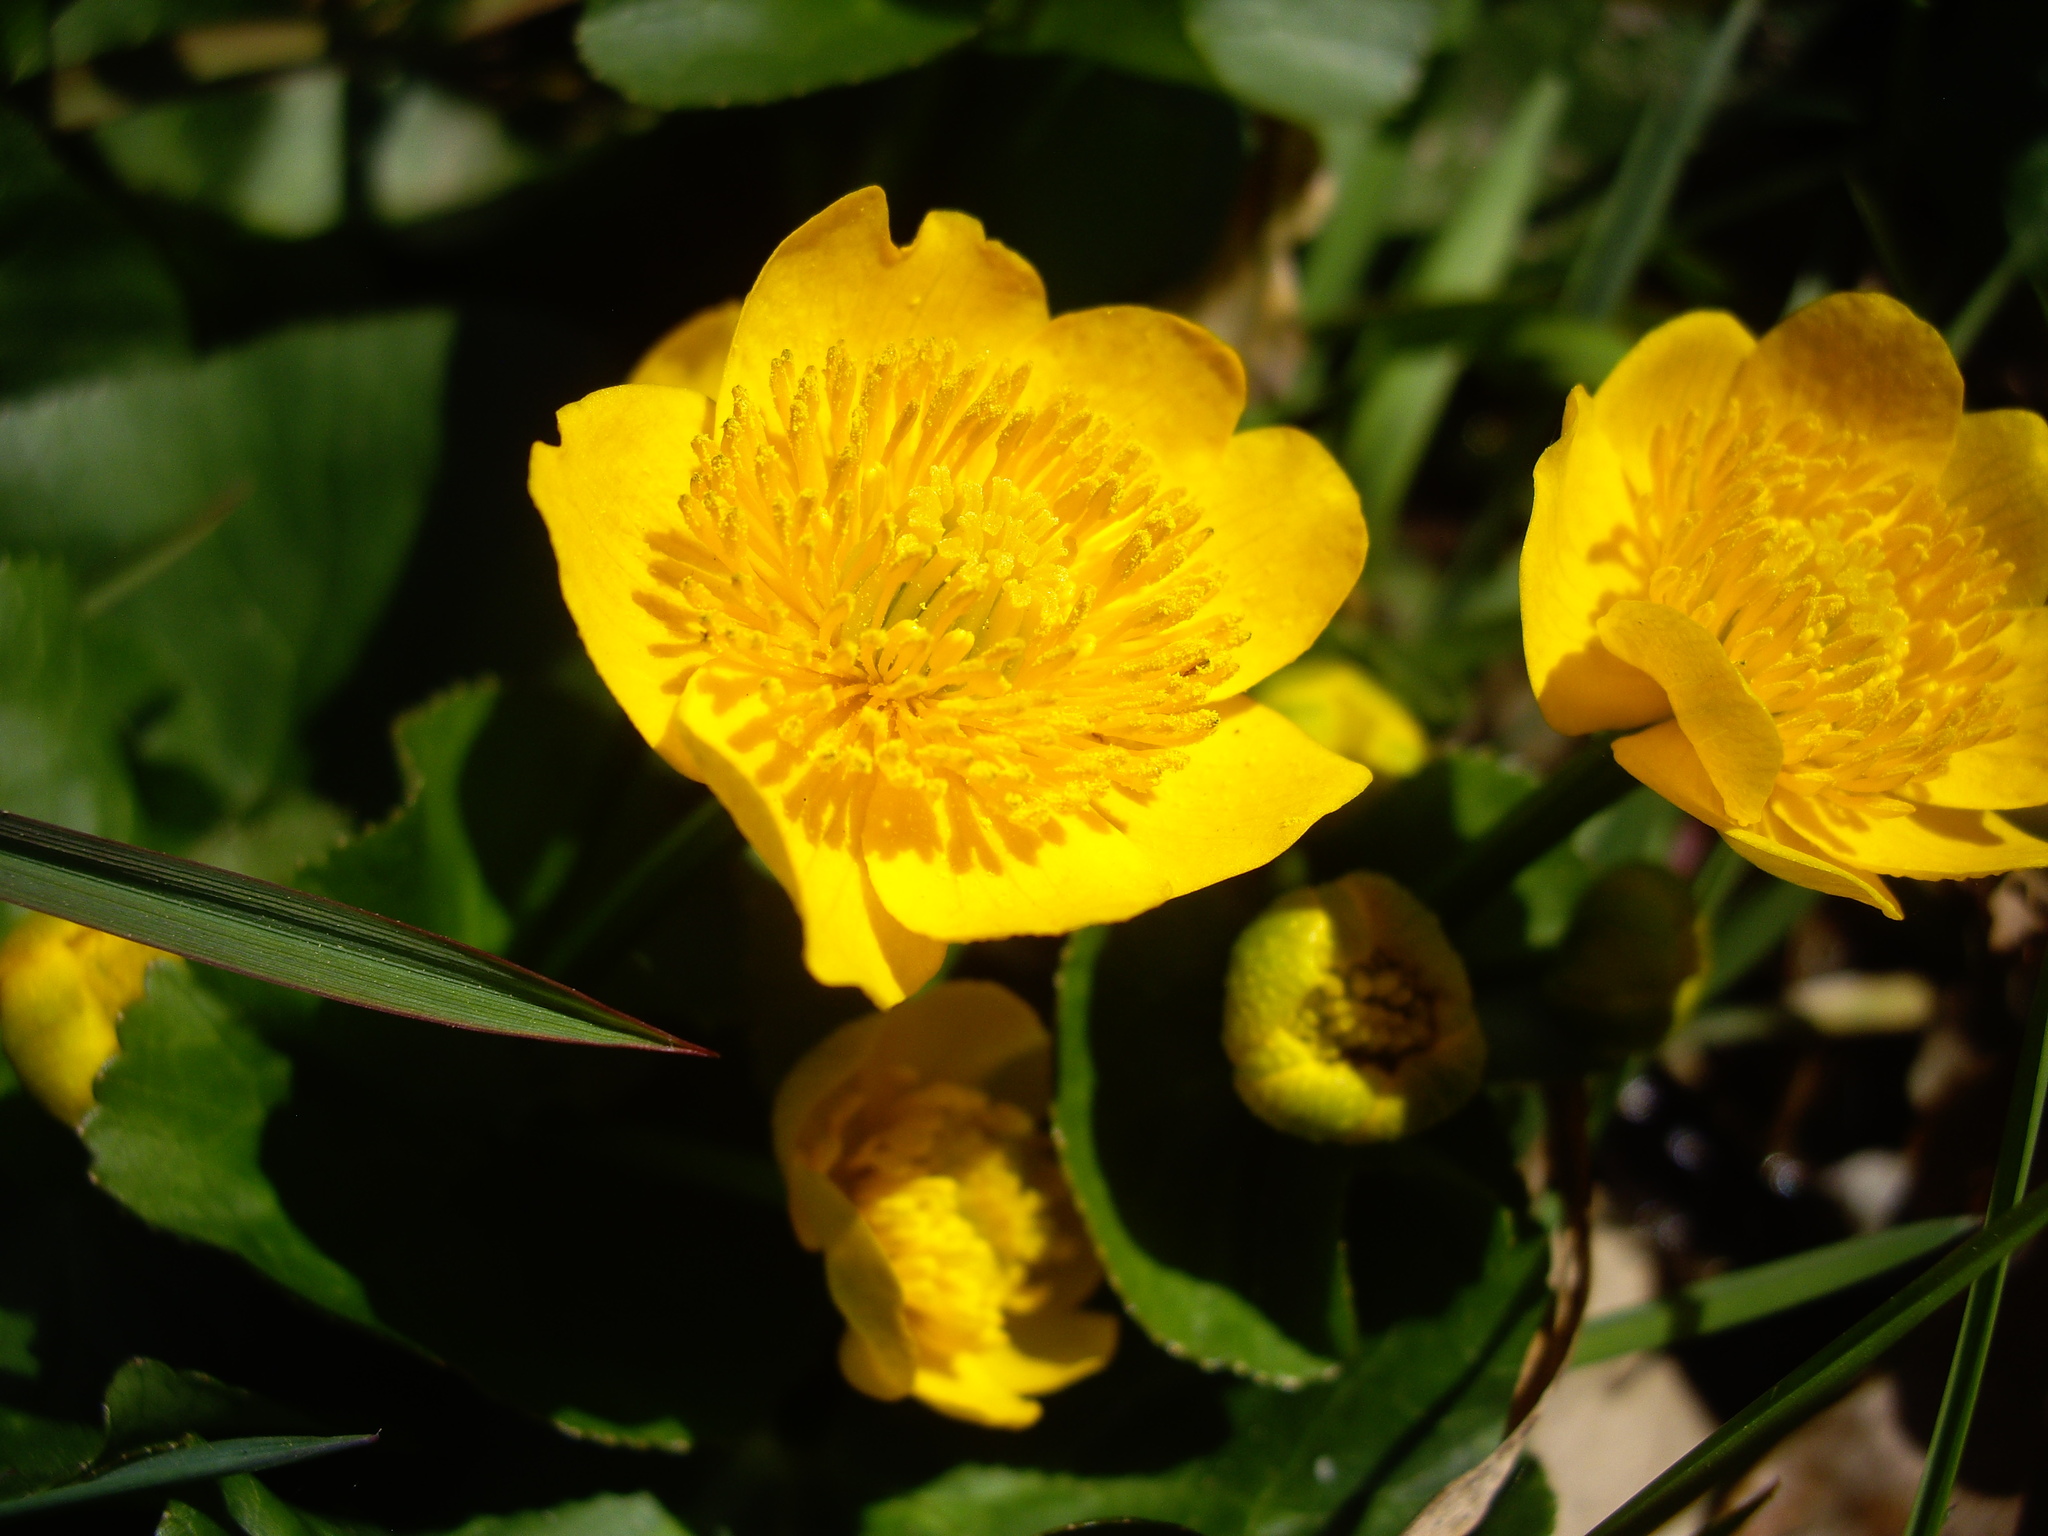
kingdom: Plantae
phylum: Tracheophyta
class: Magnoliopsida
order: Ranunculales
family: Ranunculaceae
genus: Caltha
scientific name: Caltha palustris
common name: Marsh marigold
